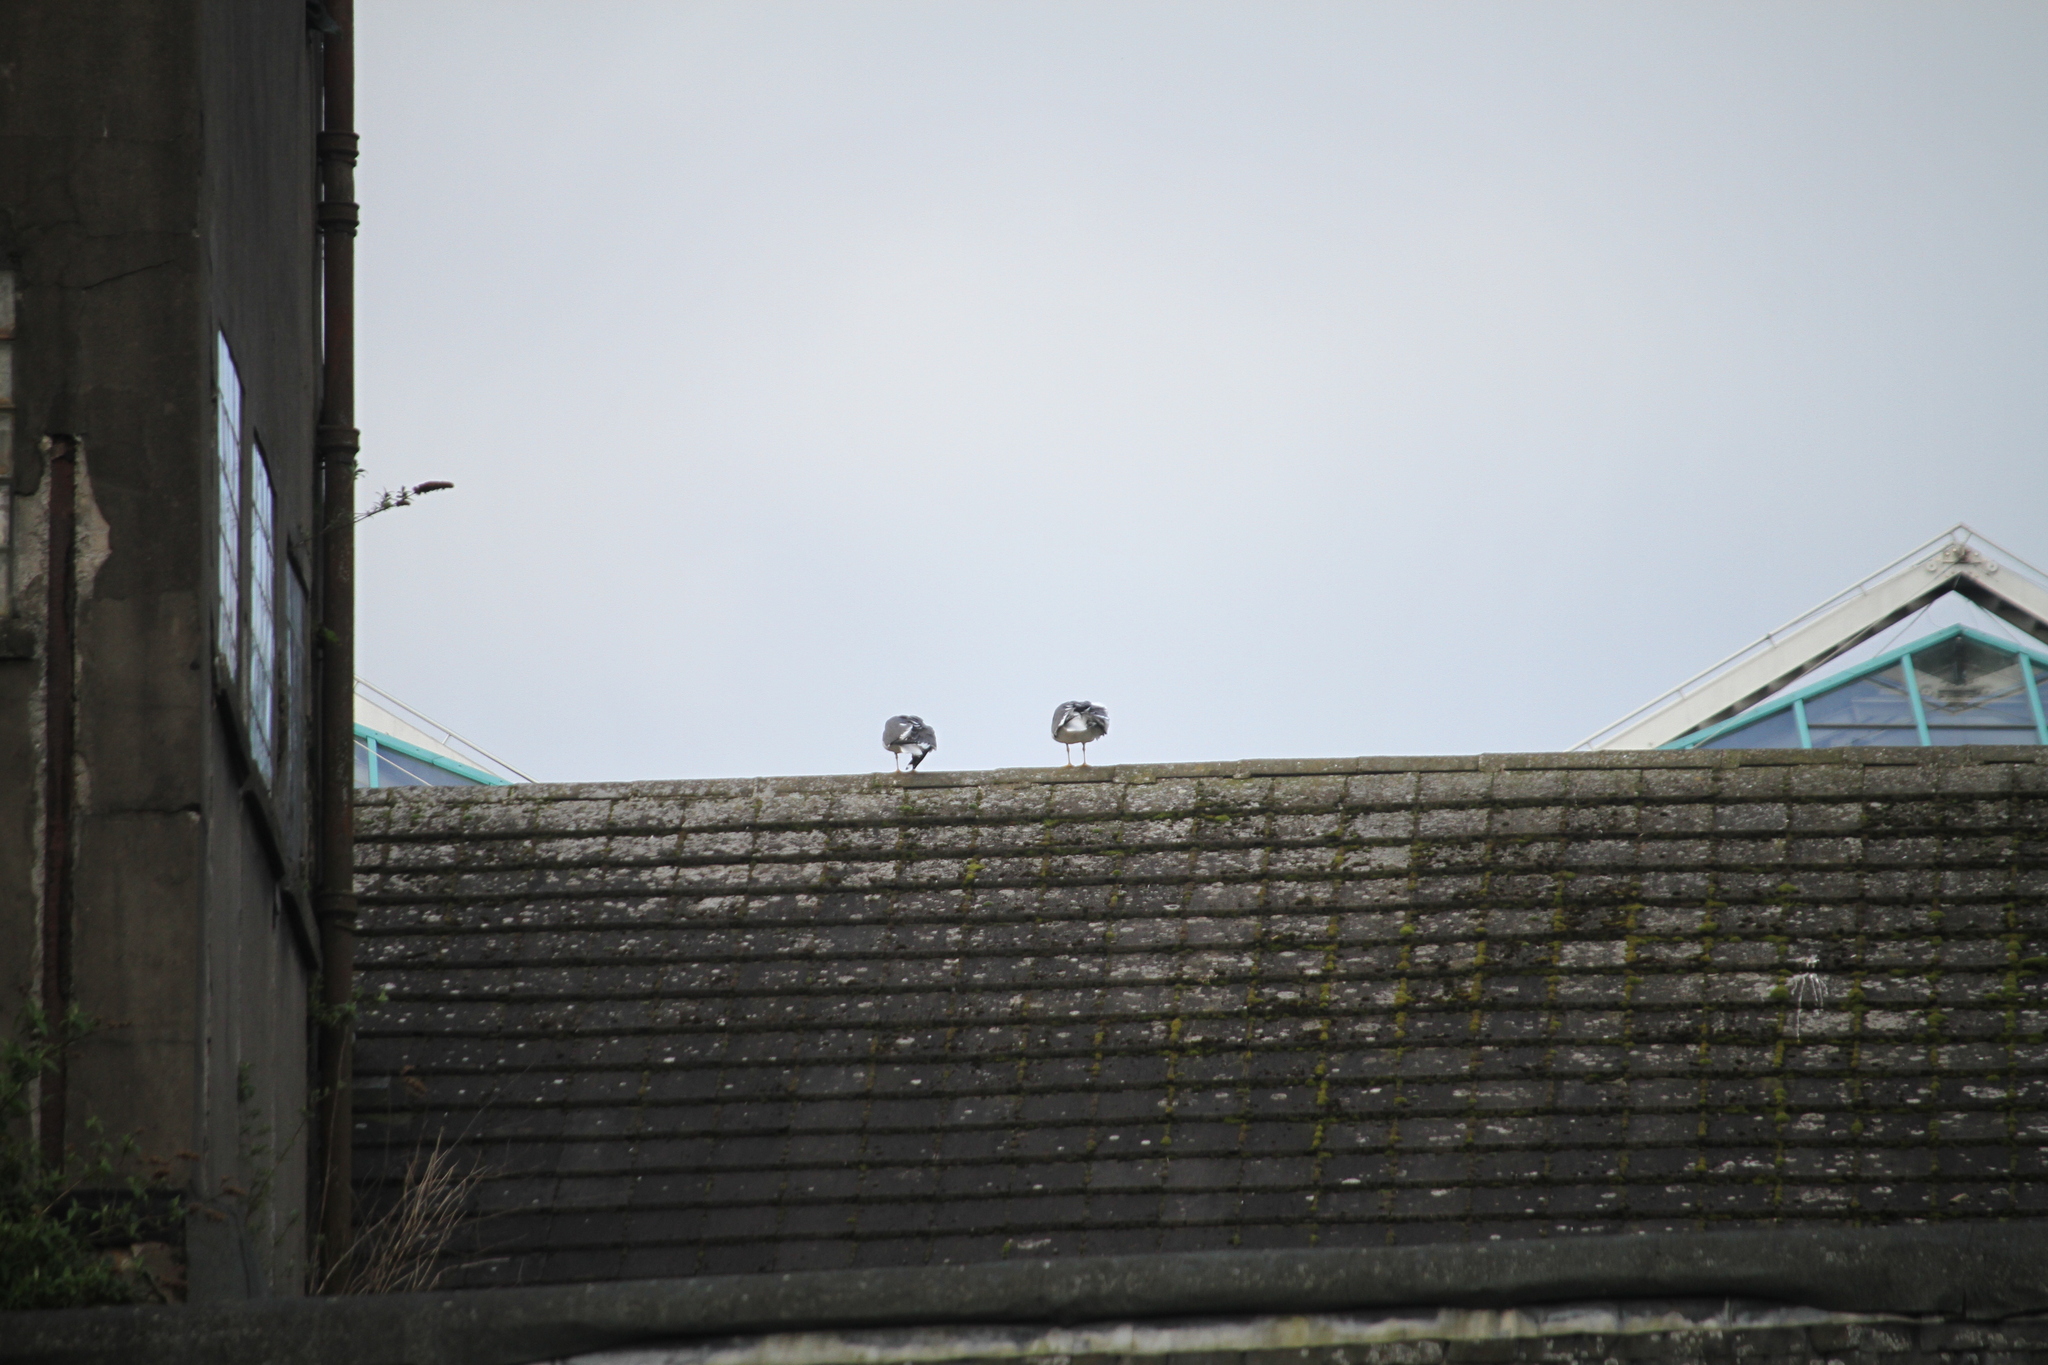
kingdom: Animalia
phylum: Chordata
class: Aves
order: Charadriiformes
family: Laridae
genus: Larus
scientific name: Larus fuscus
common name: Lesser black-backed gull
